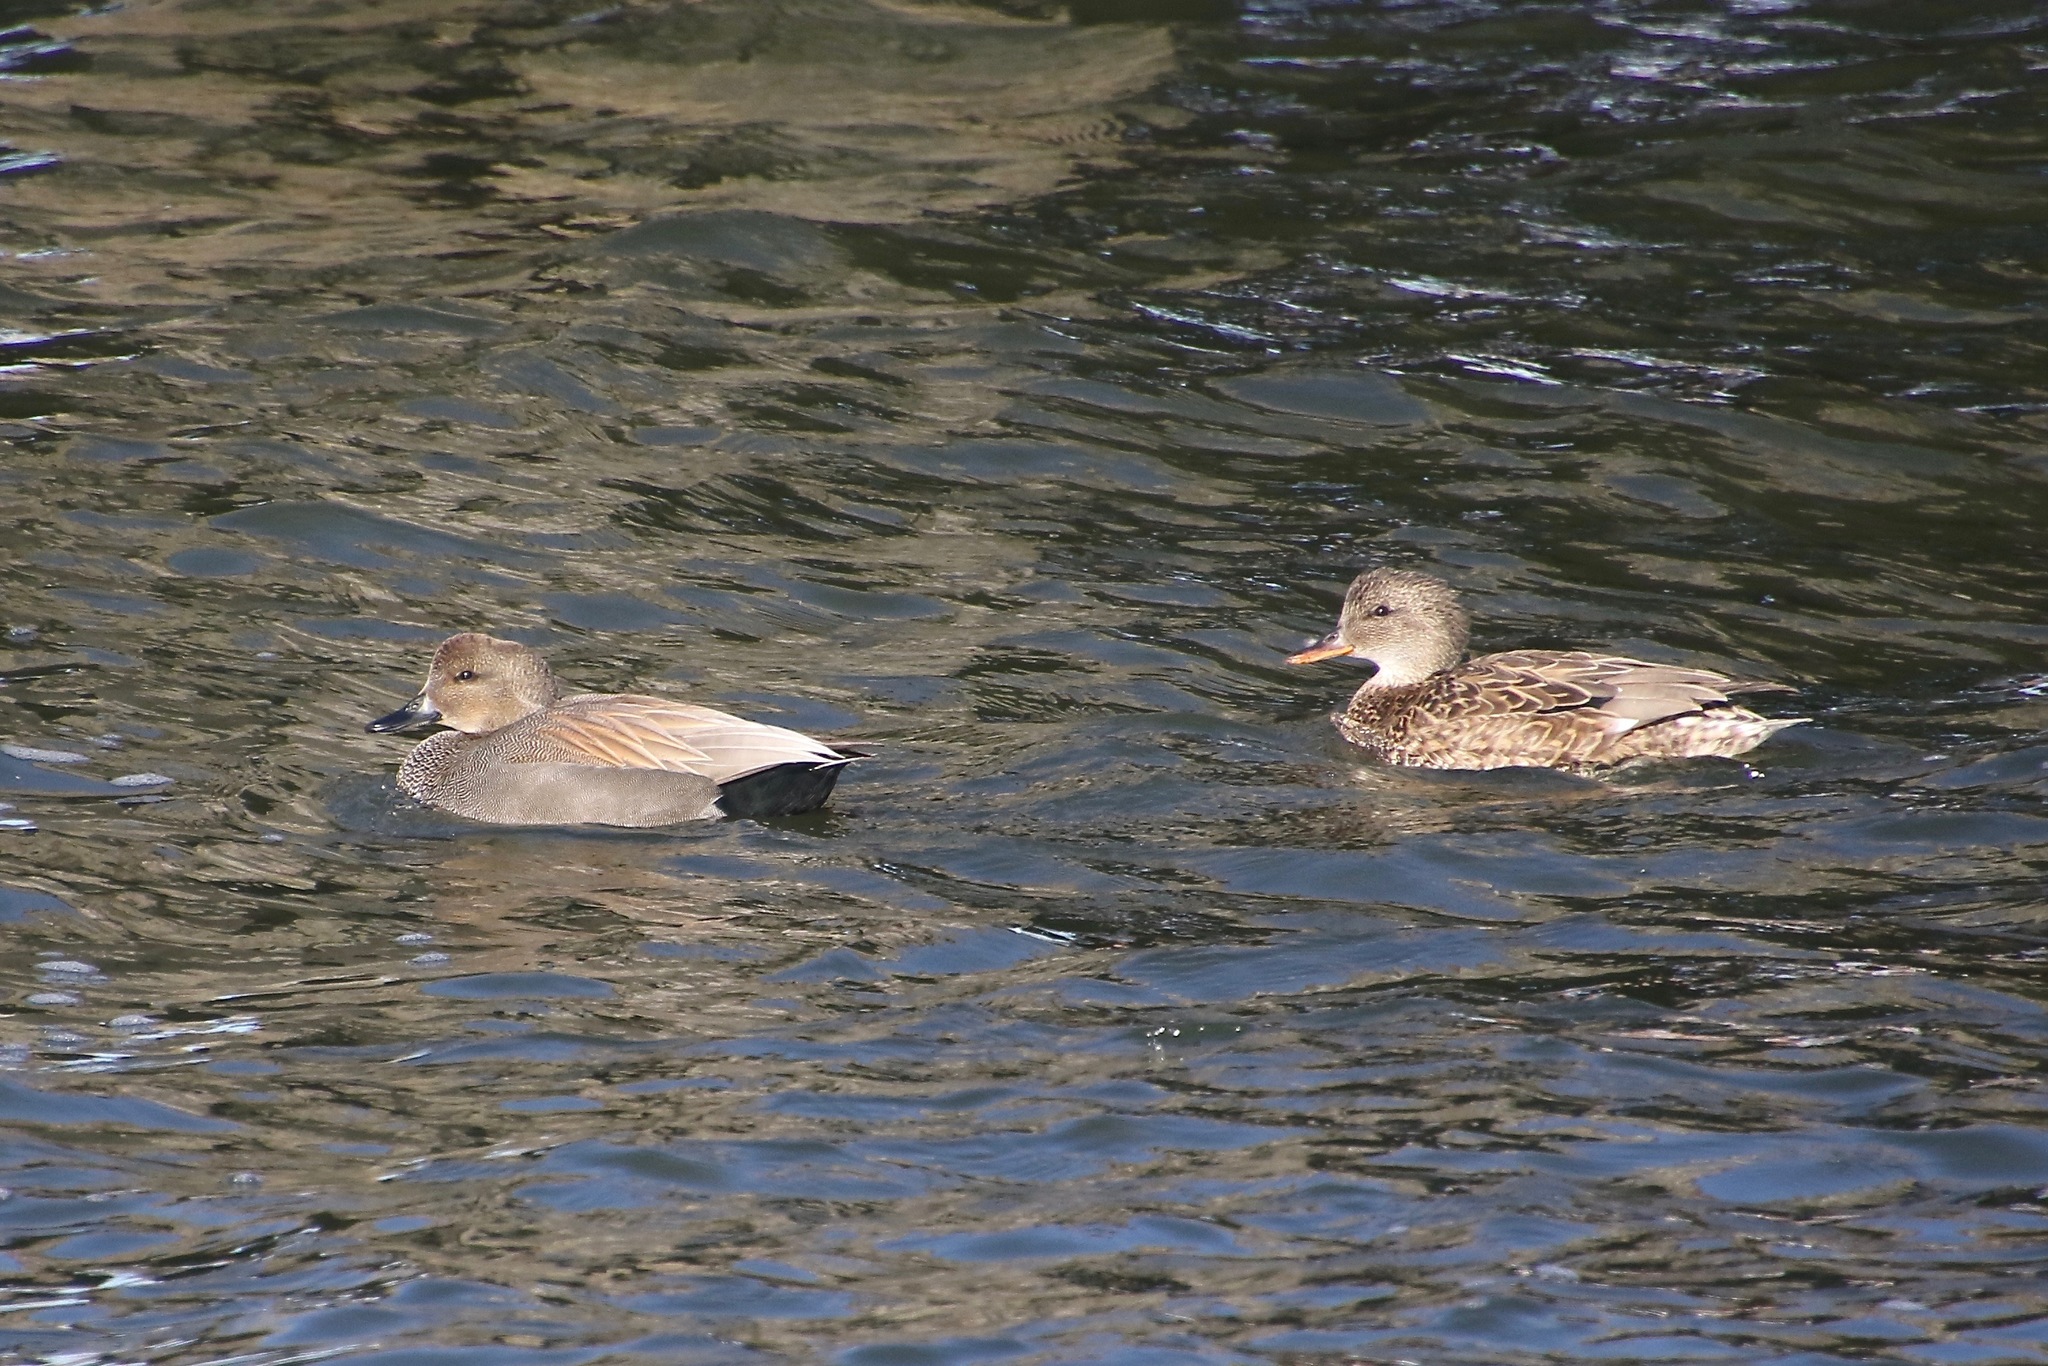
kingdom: Animalia
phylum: Chordata
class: Aves
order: Anseriformes
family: Anatidae
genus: Mareca
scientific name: Mareca strepera
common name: Gadwall
